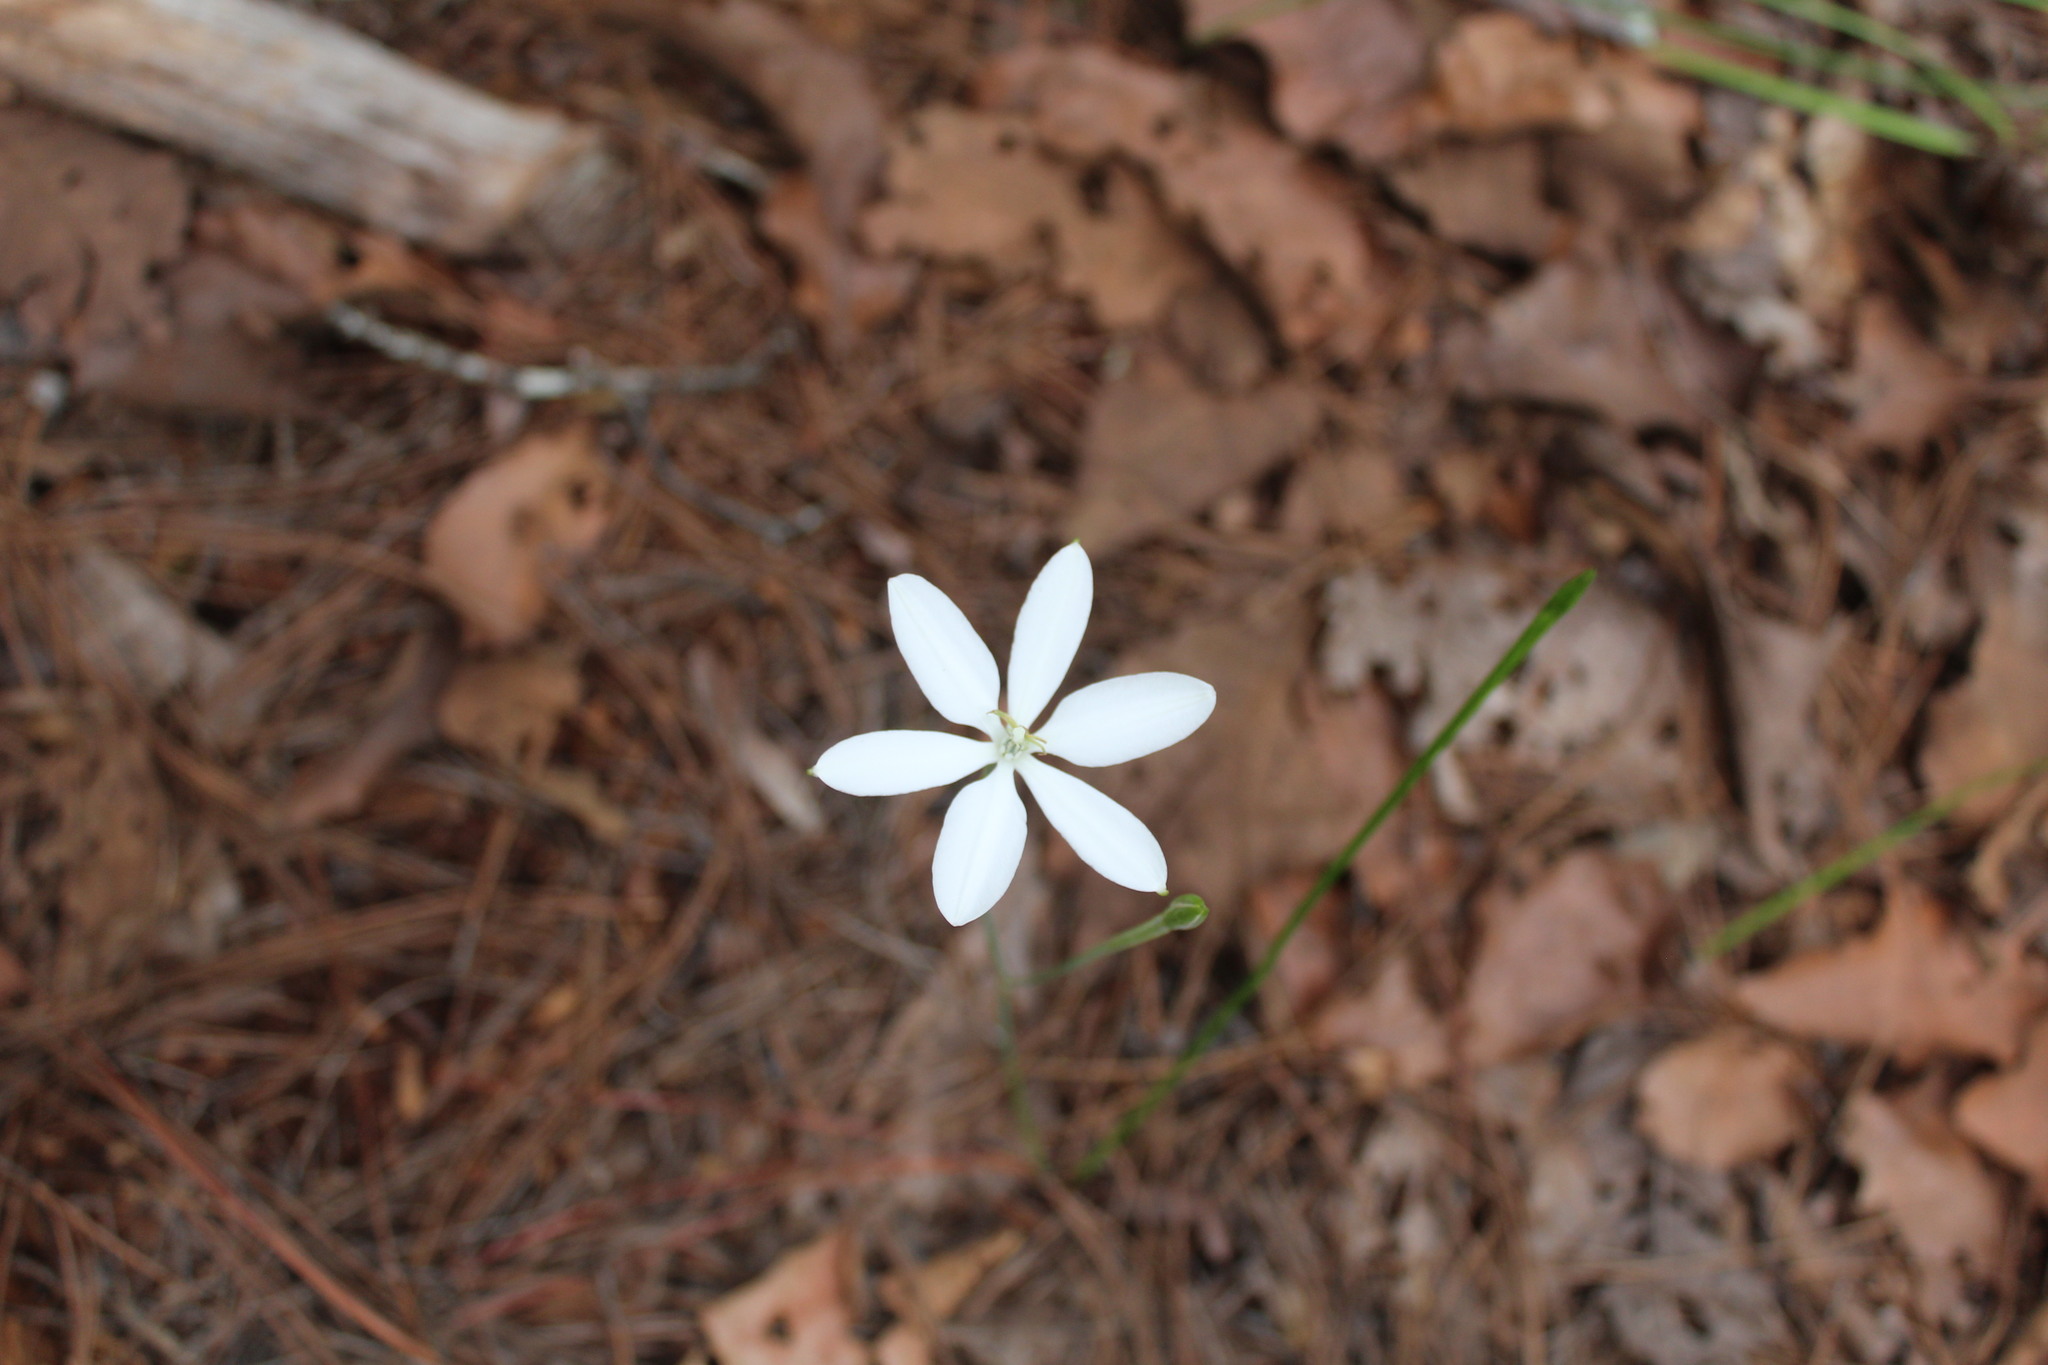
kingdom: Plantae
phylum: Tracheophyta
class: Liliopsida
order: Asparagales
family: Asparagaceae
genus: Milla
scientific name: Milla biflora
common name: Mexican-star
